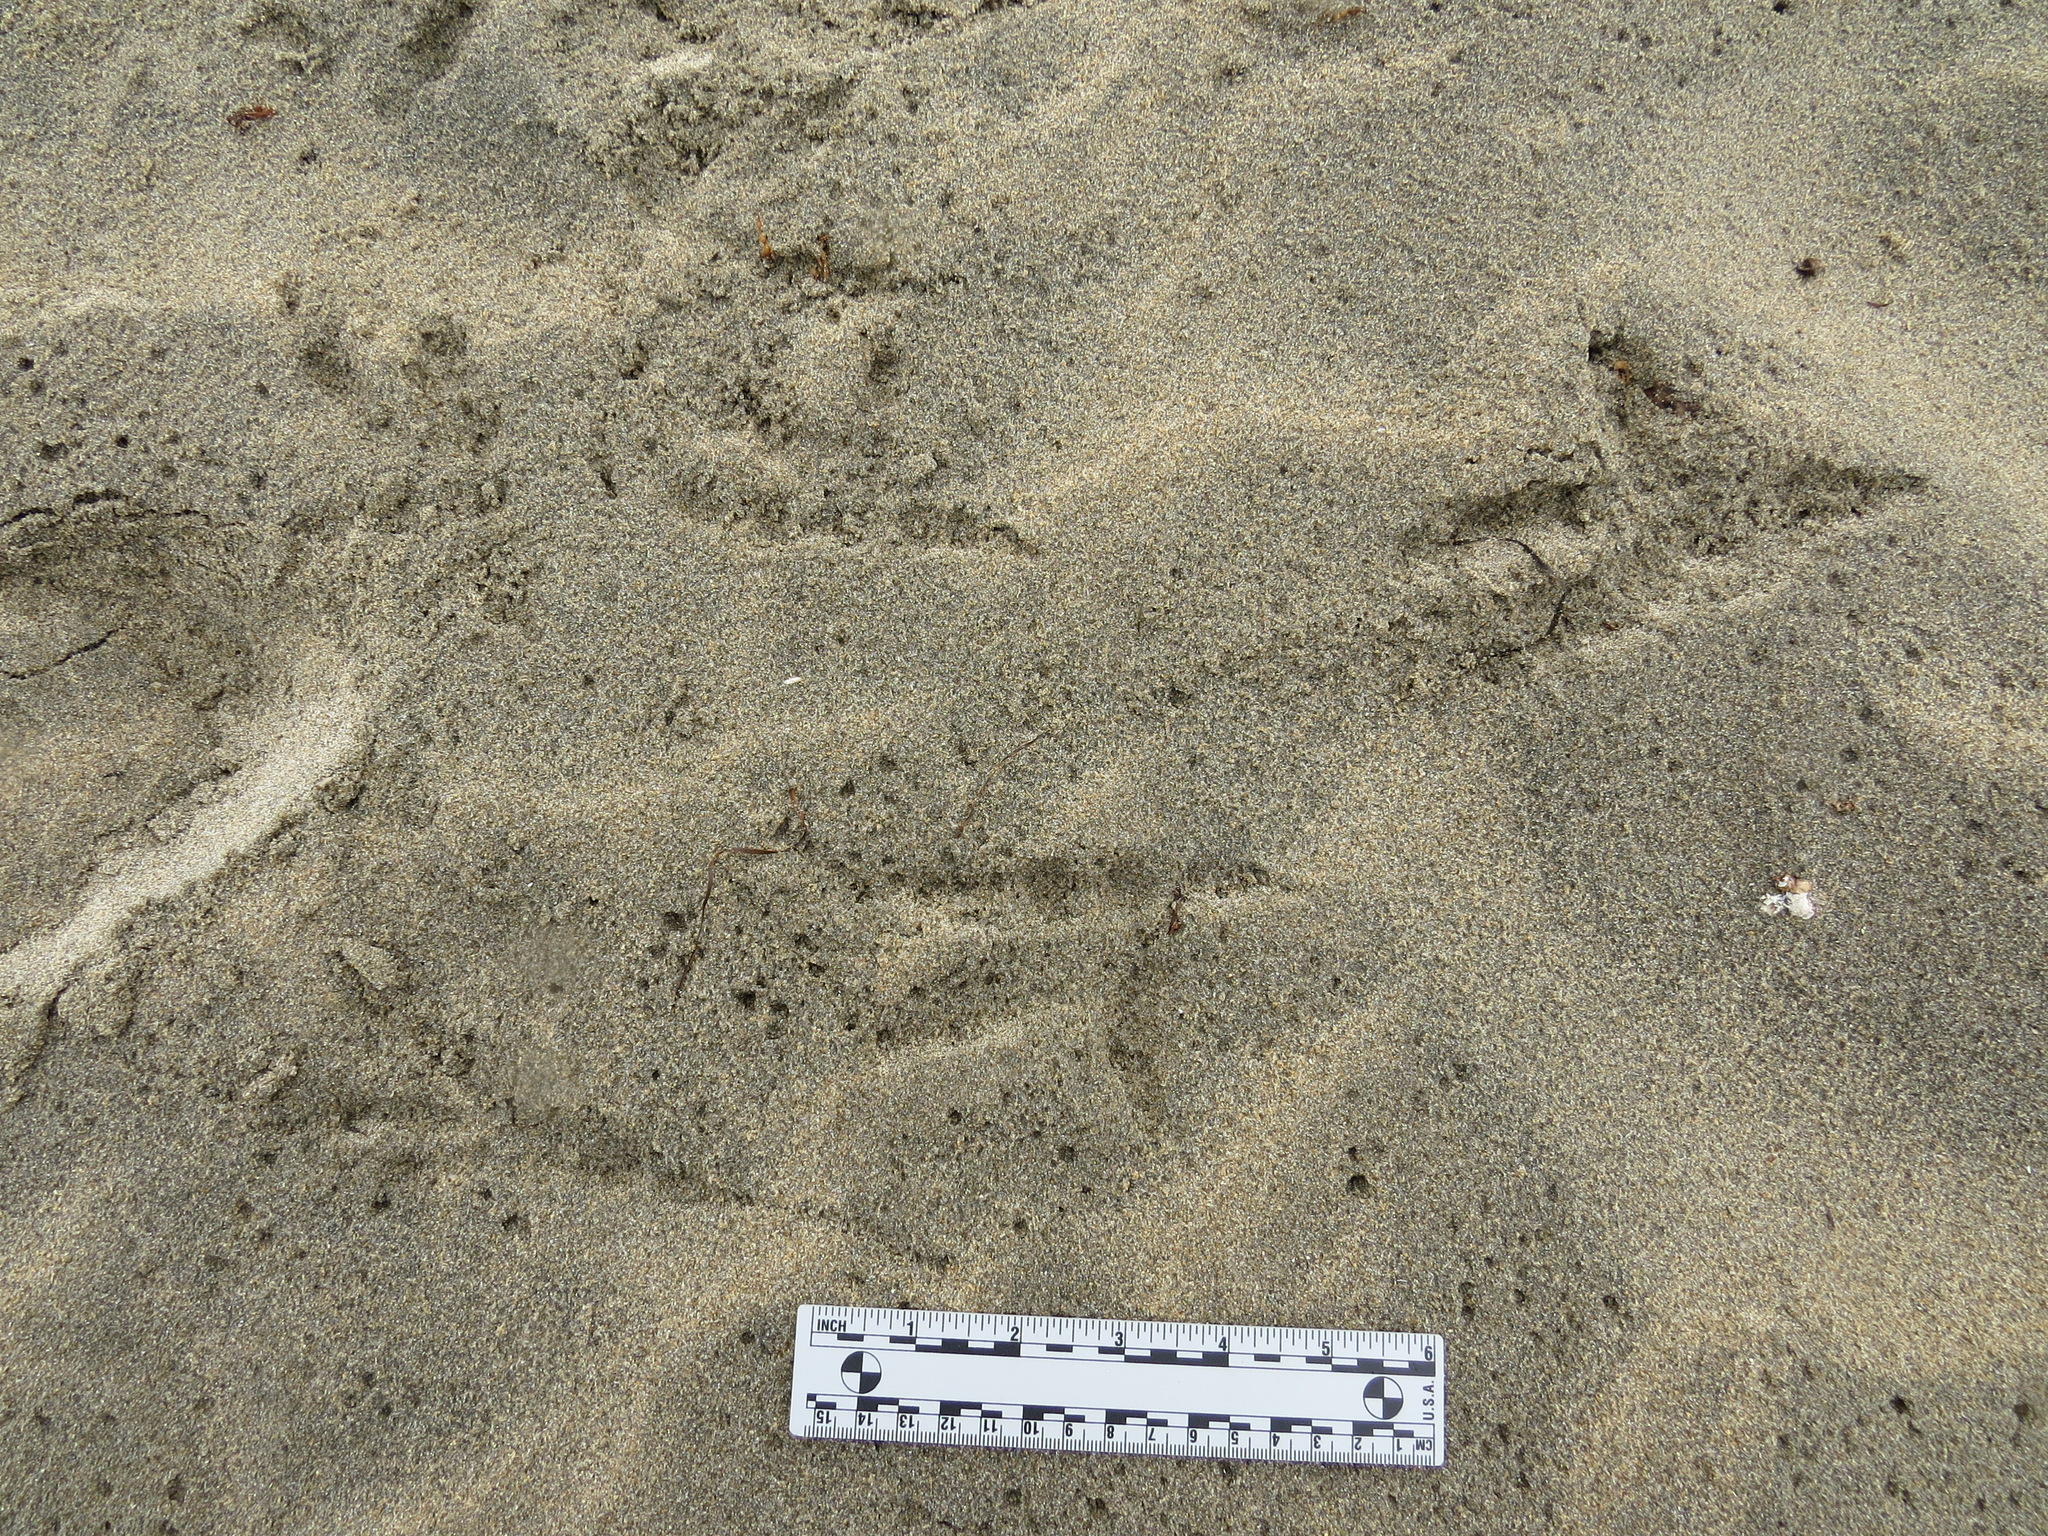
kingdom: Animalia
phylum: Chordata
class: Aves
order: Strigiformes
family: Strigidae
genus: Bubo
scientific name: Bubo virginianus
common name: Great horned owl
